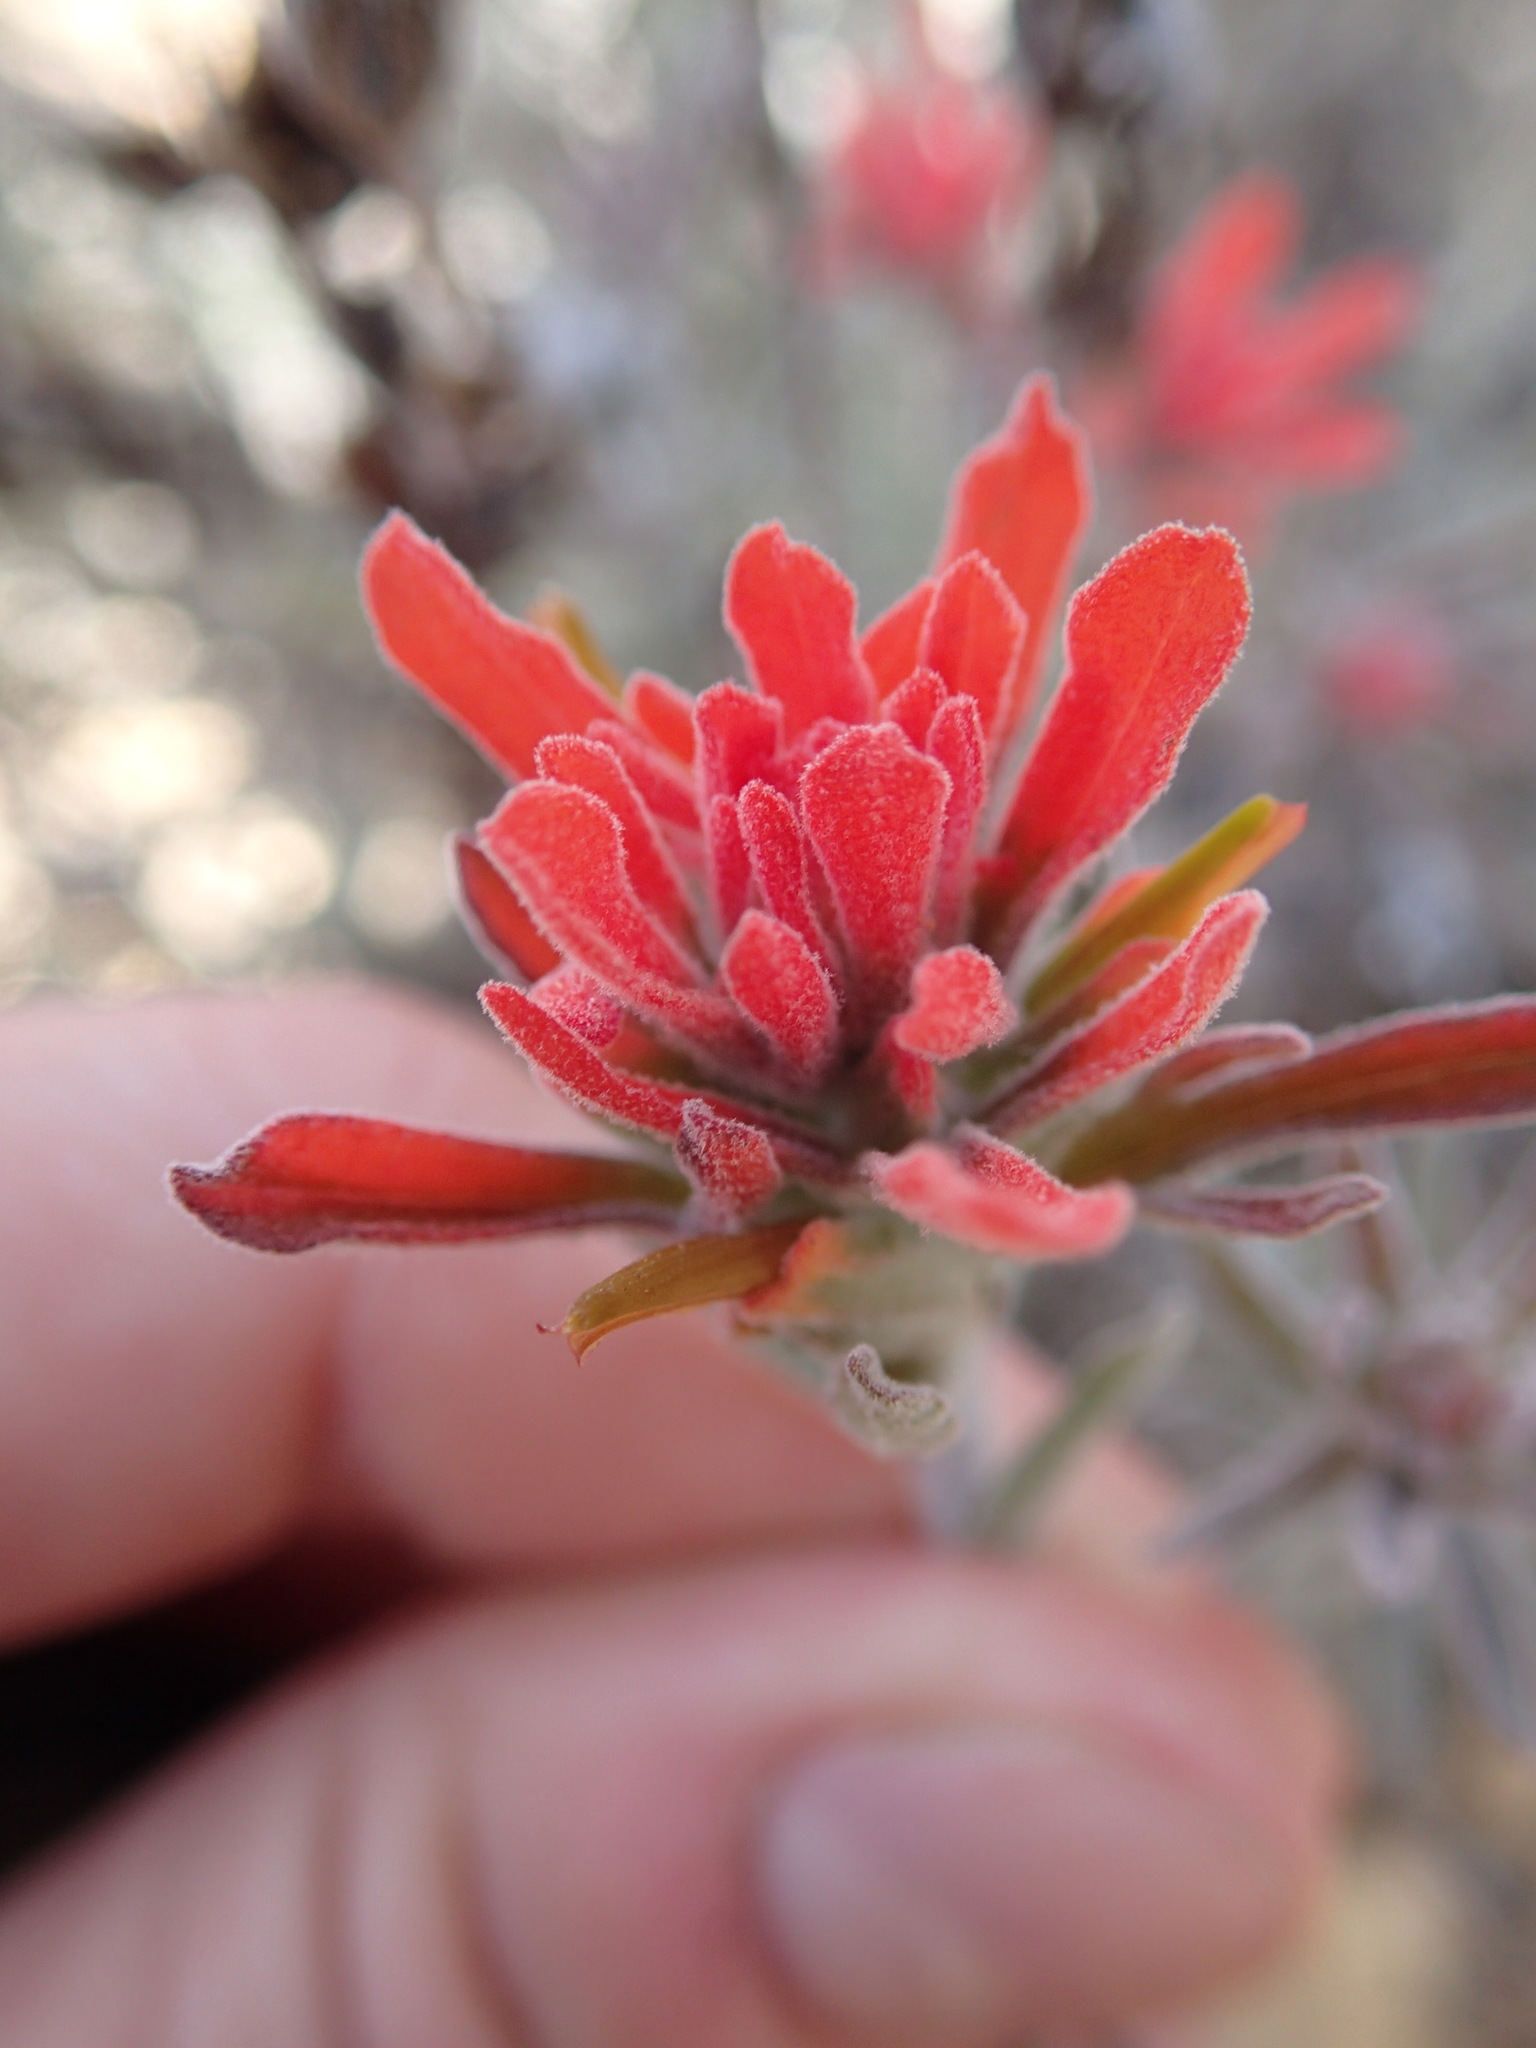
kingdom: Plantae
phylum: Tracheophyta
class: Magnoliopsida
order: Lamiales
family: Orobanchaceae
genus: Castilleja
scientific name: Castilleja foliolosa
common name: Woolly indian paintbrush
